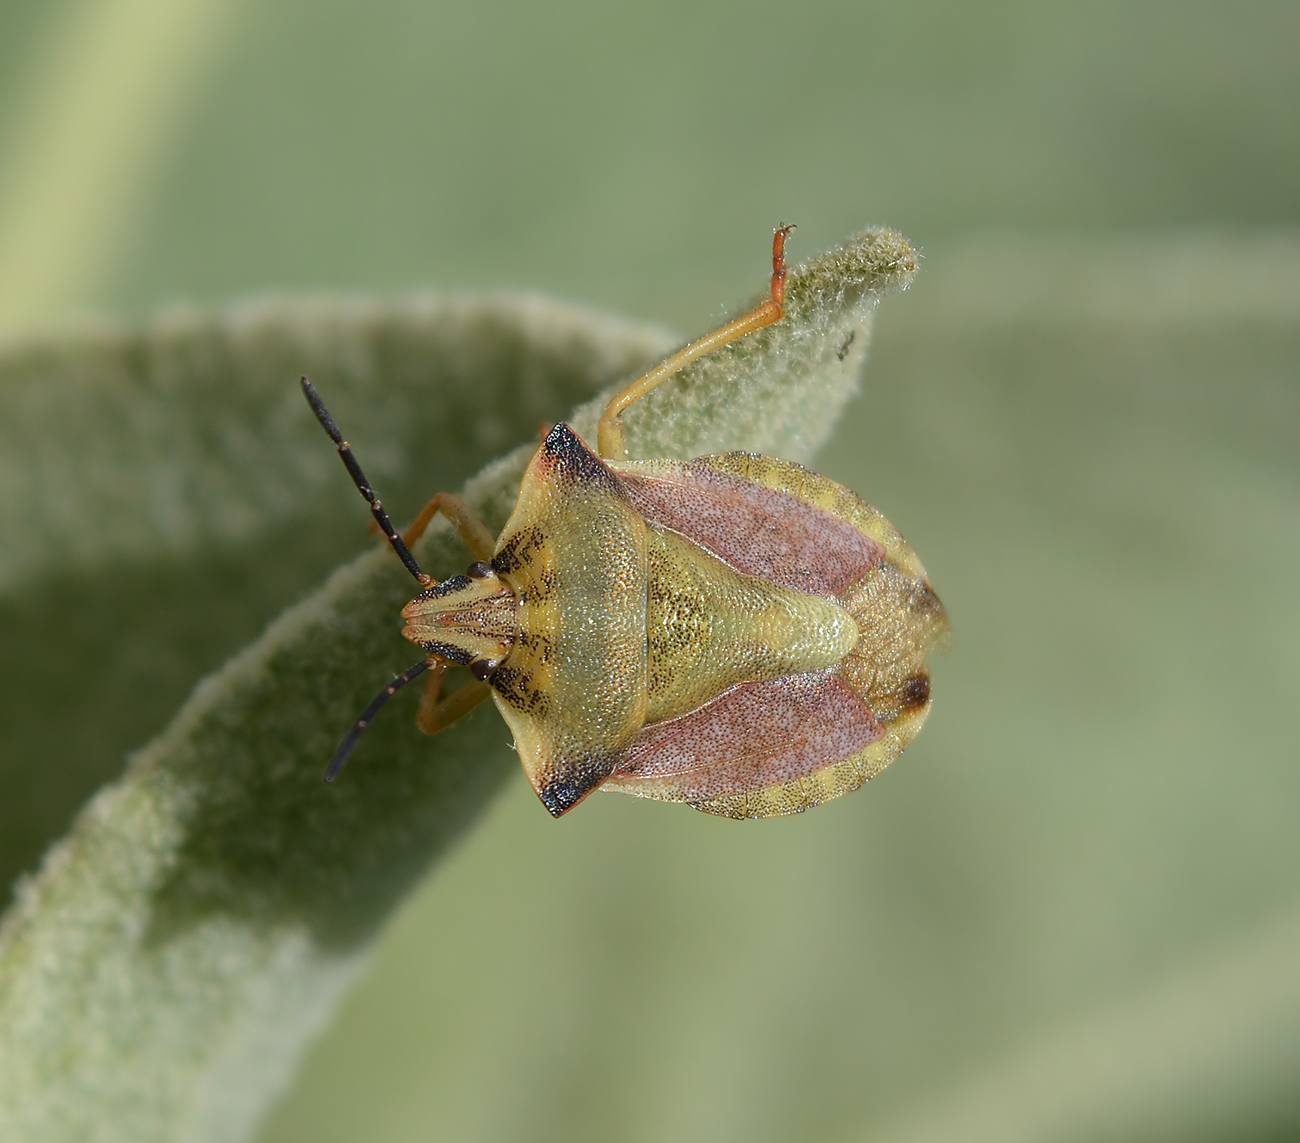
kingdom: Animalia
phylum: Arthropoda
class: Insecta
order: Hemiptera
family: Pentatomidae
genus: Carpocoris
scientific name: Carpocoris fuscispinus
